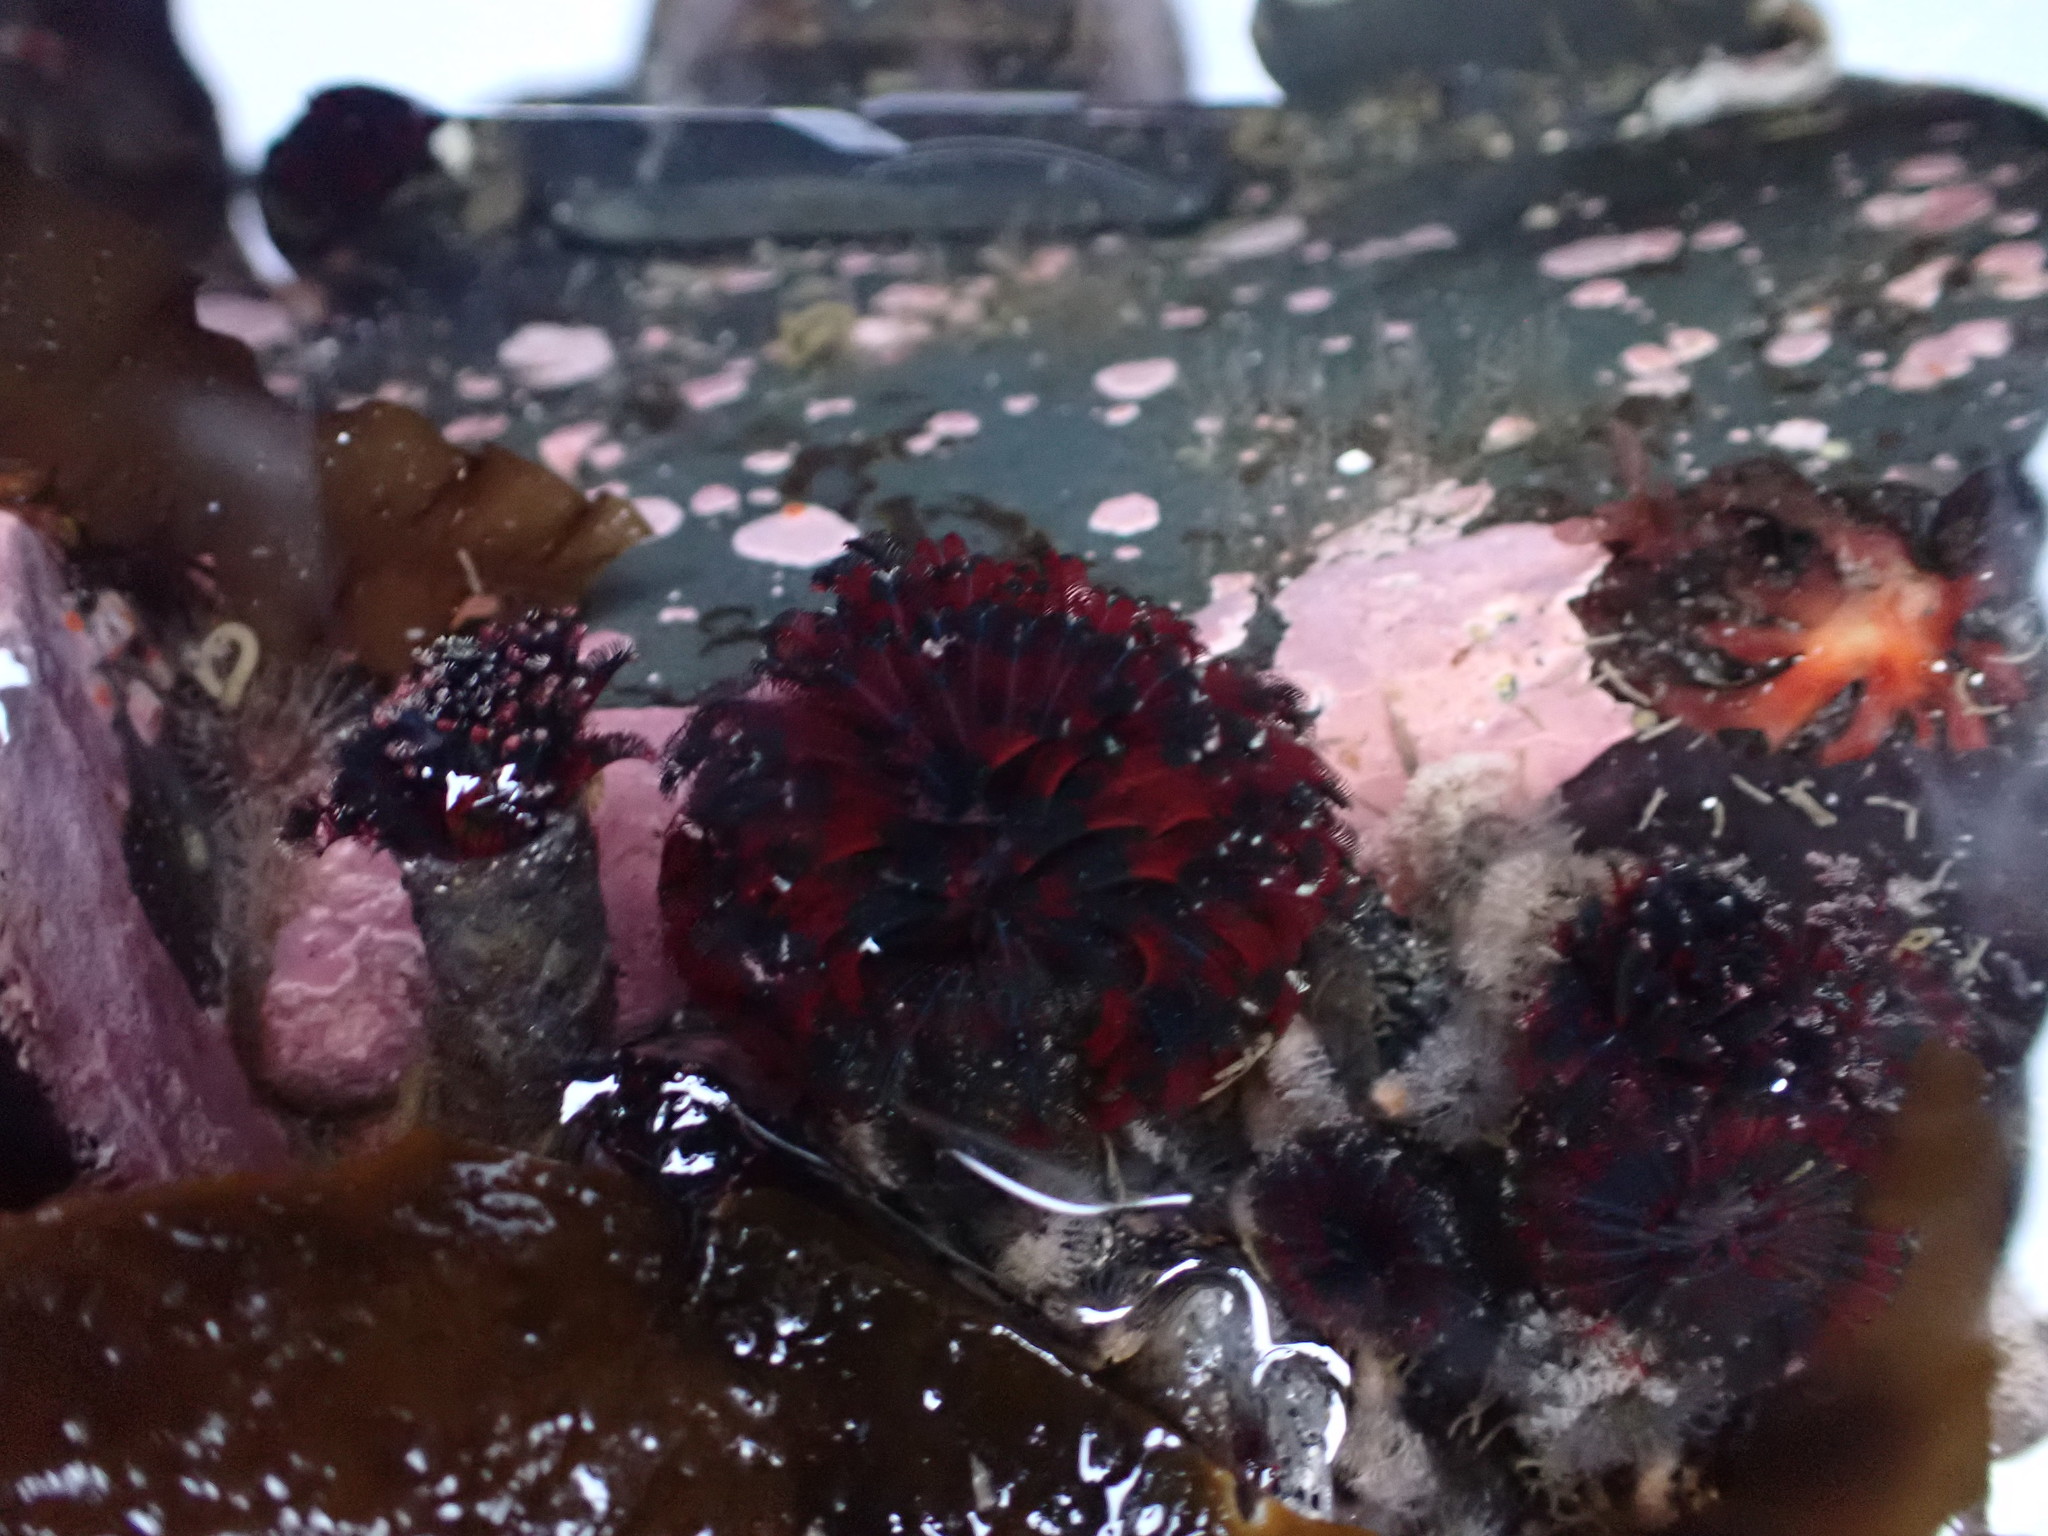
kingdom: Animalia
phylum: Annelida
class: Polychaeta
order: Sabellida
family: Sabellidae
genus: Eudistylia
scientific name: Eudistylia vancouveri
